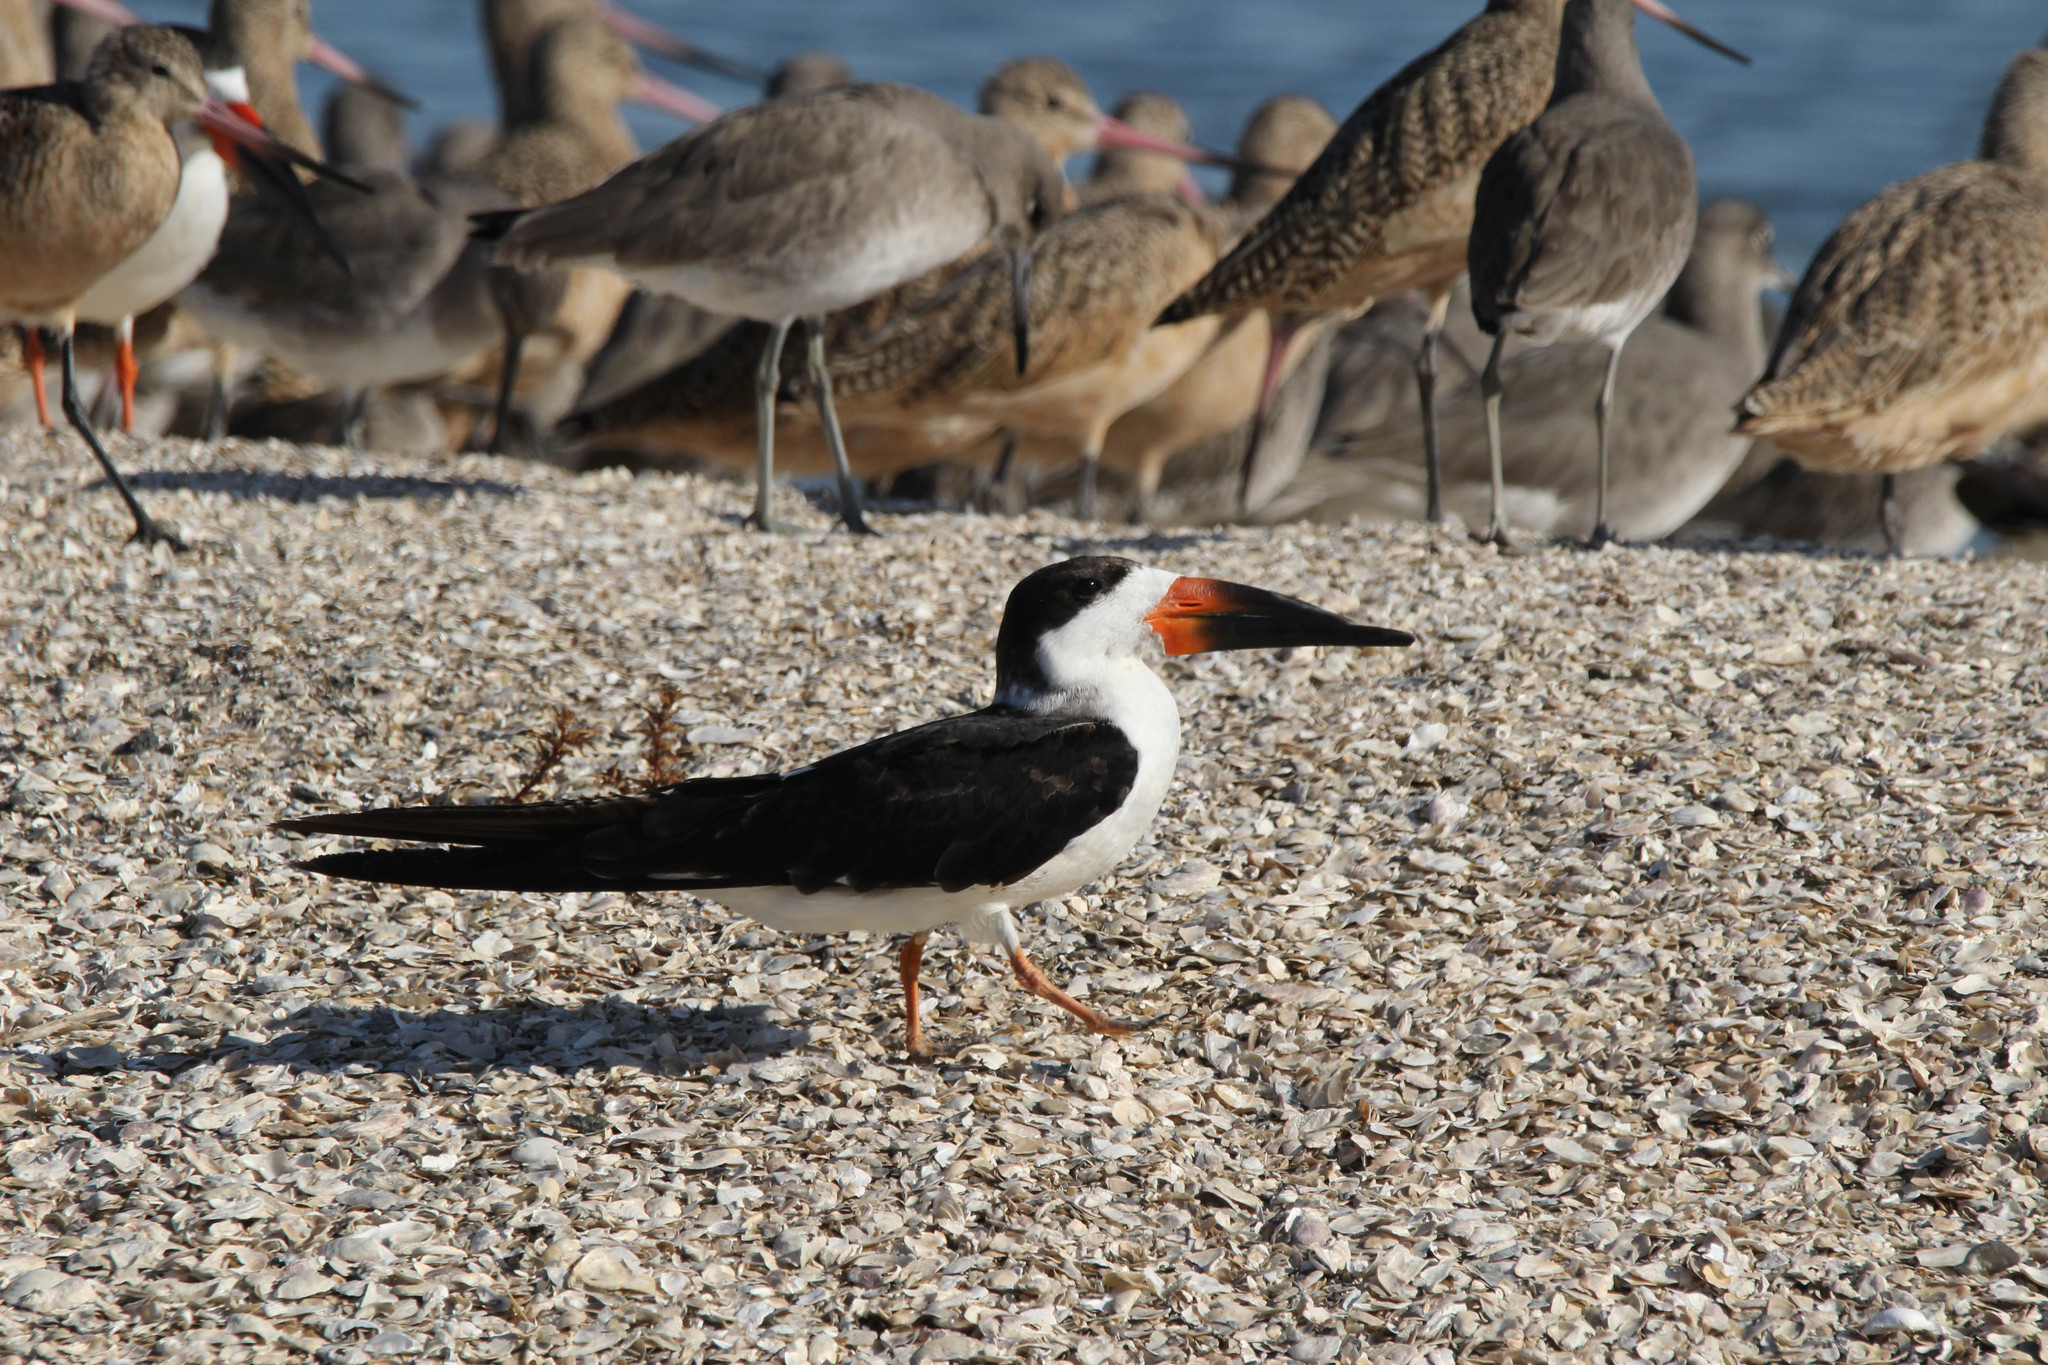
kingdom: Animalia
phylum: Chordata
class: Aves
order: Charadriiformes
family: Laridae
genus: Rynchops
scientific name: Rynchops niger
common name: Black skimmer
